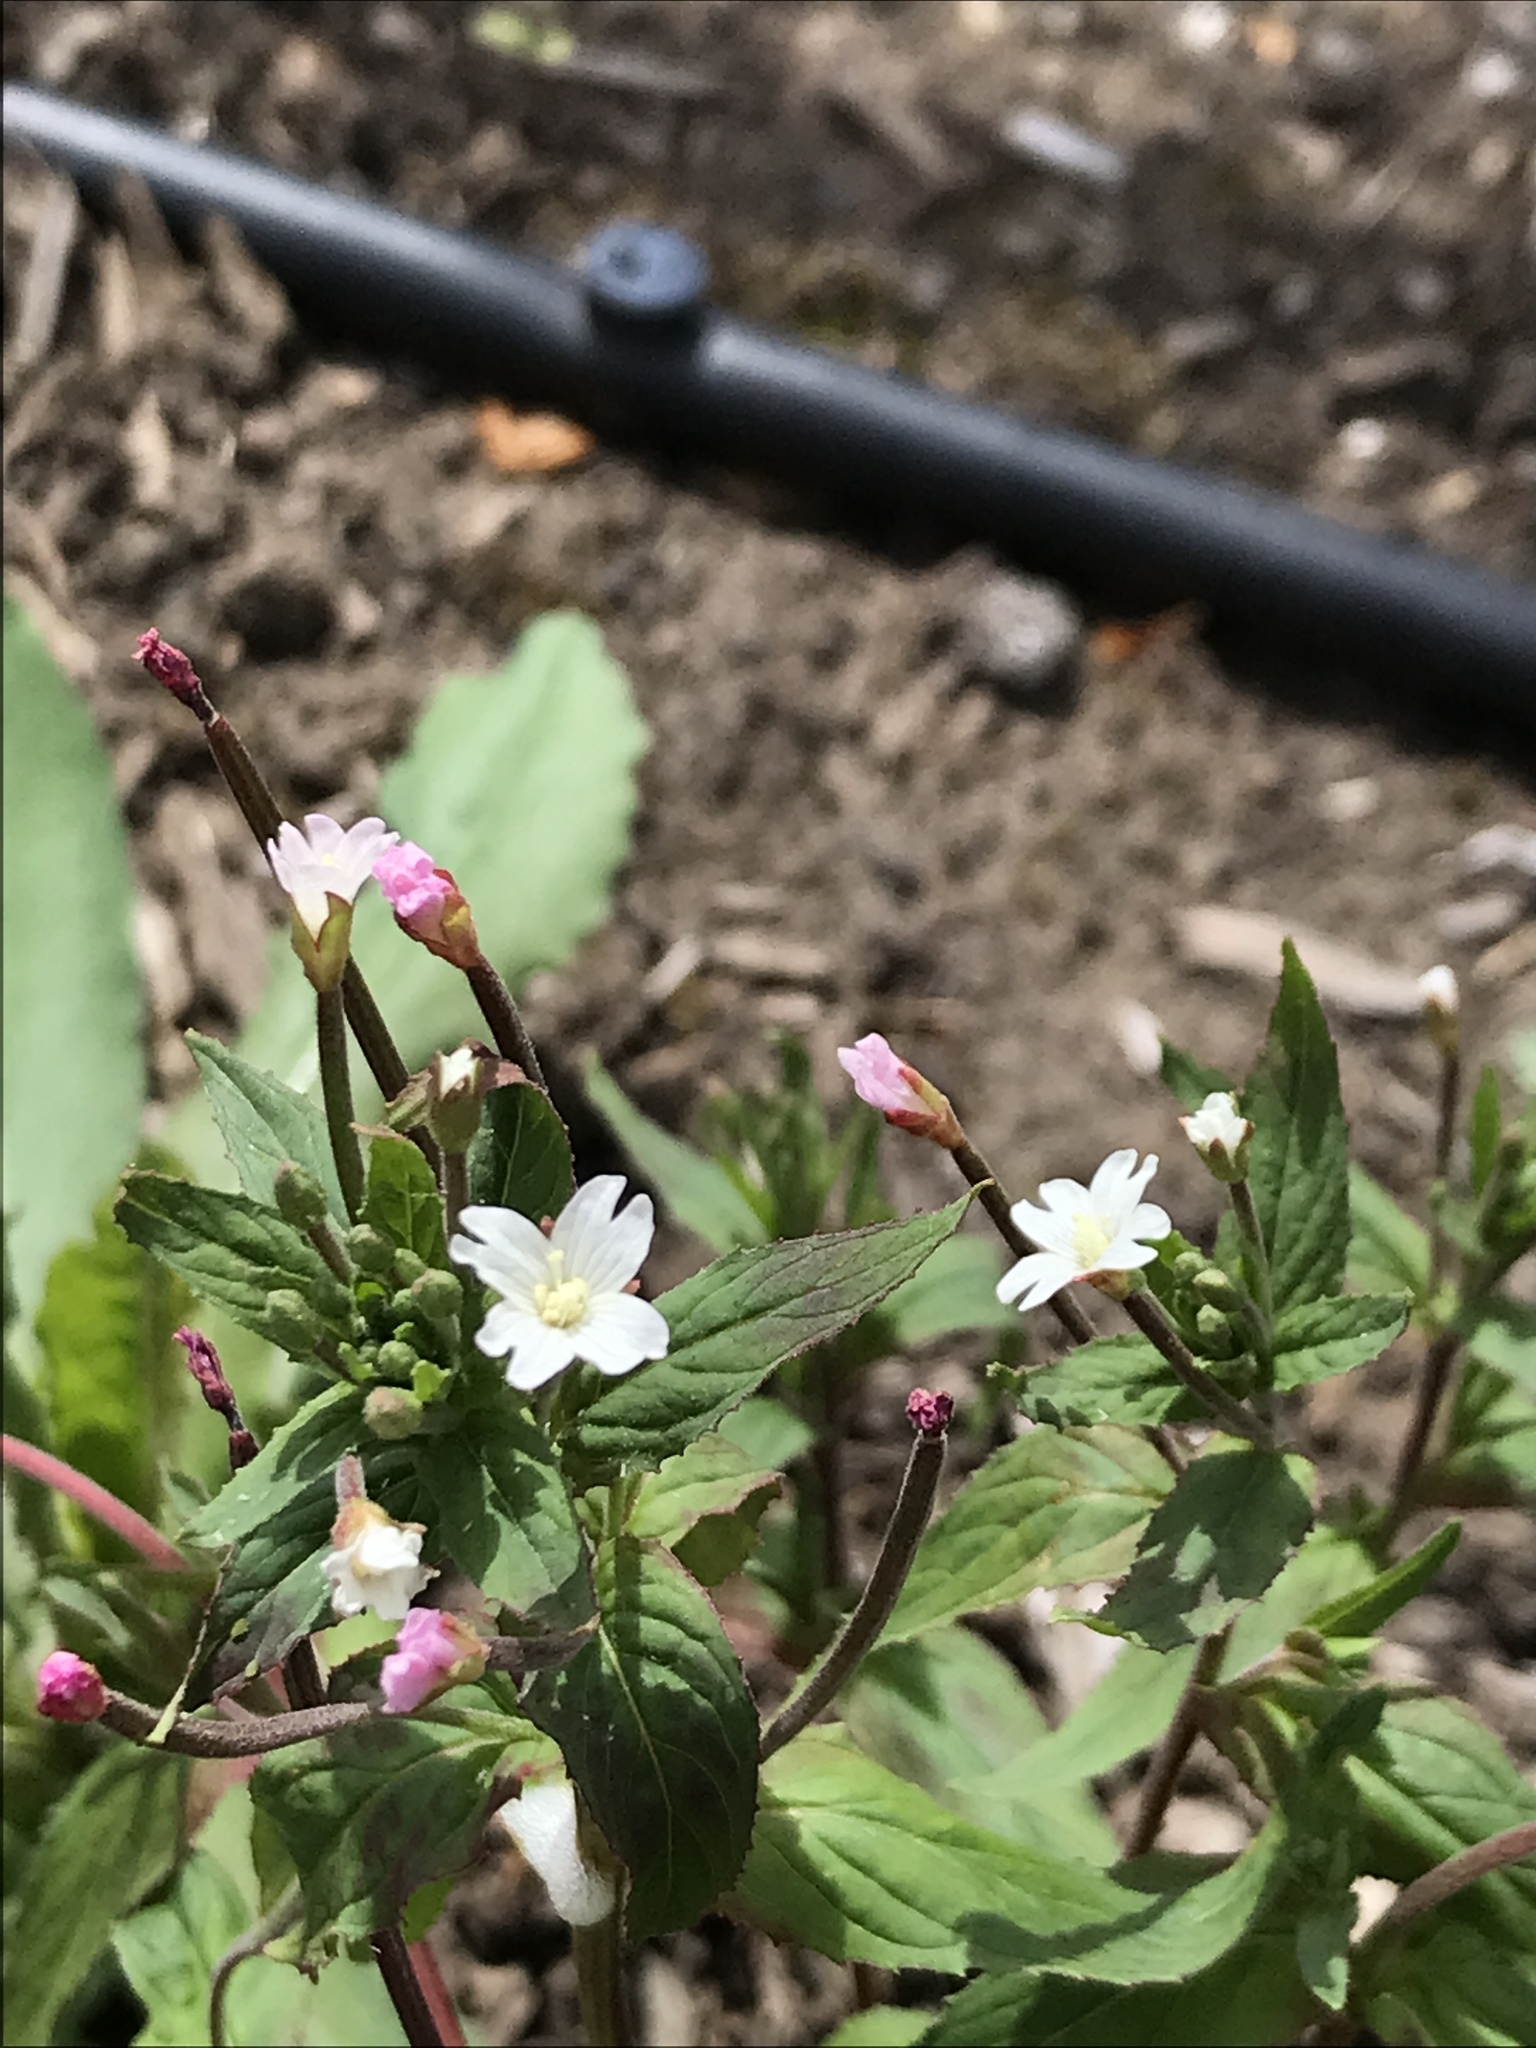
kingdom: Plantae
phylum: Tracheophyta
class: Magnoliopsida
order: Myrtales
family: Onagraceae
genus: Epilobium
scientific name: Epilobium ciliatum
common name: American willowherb
